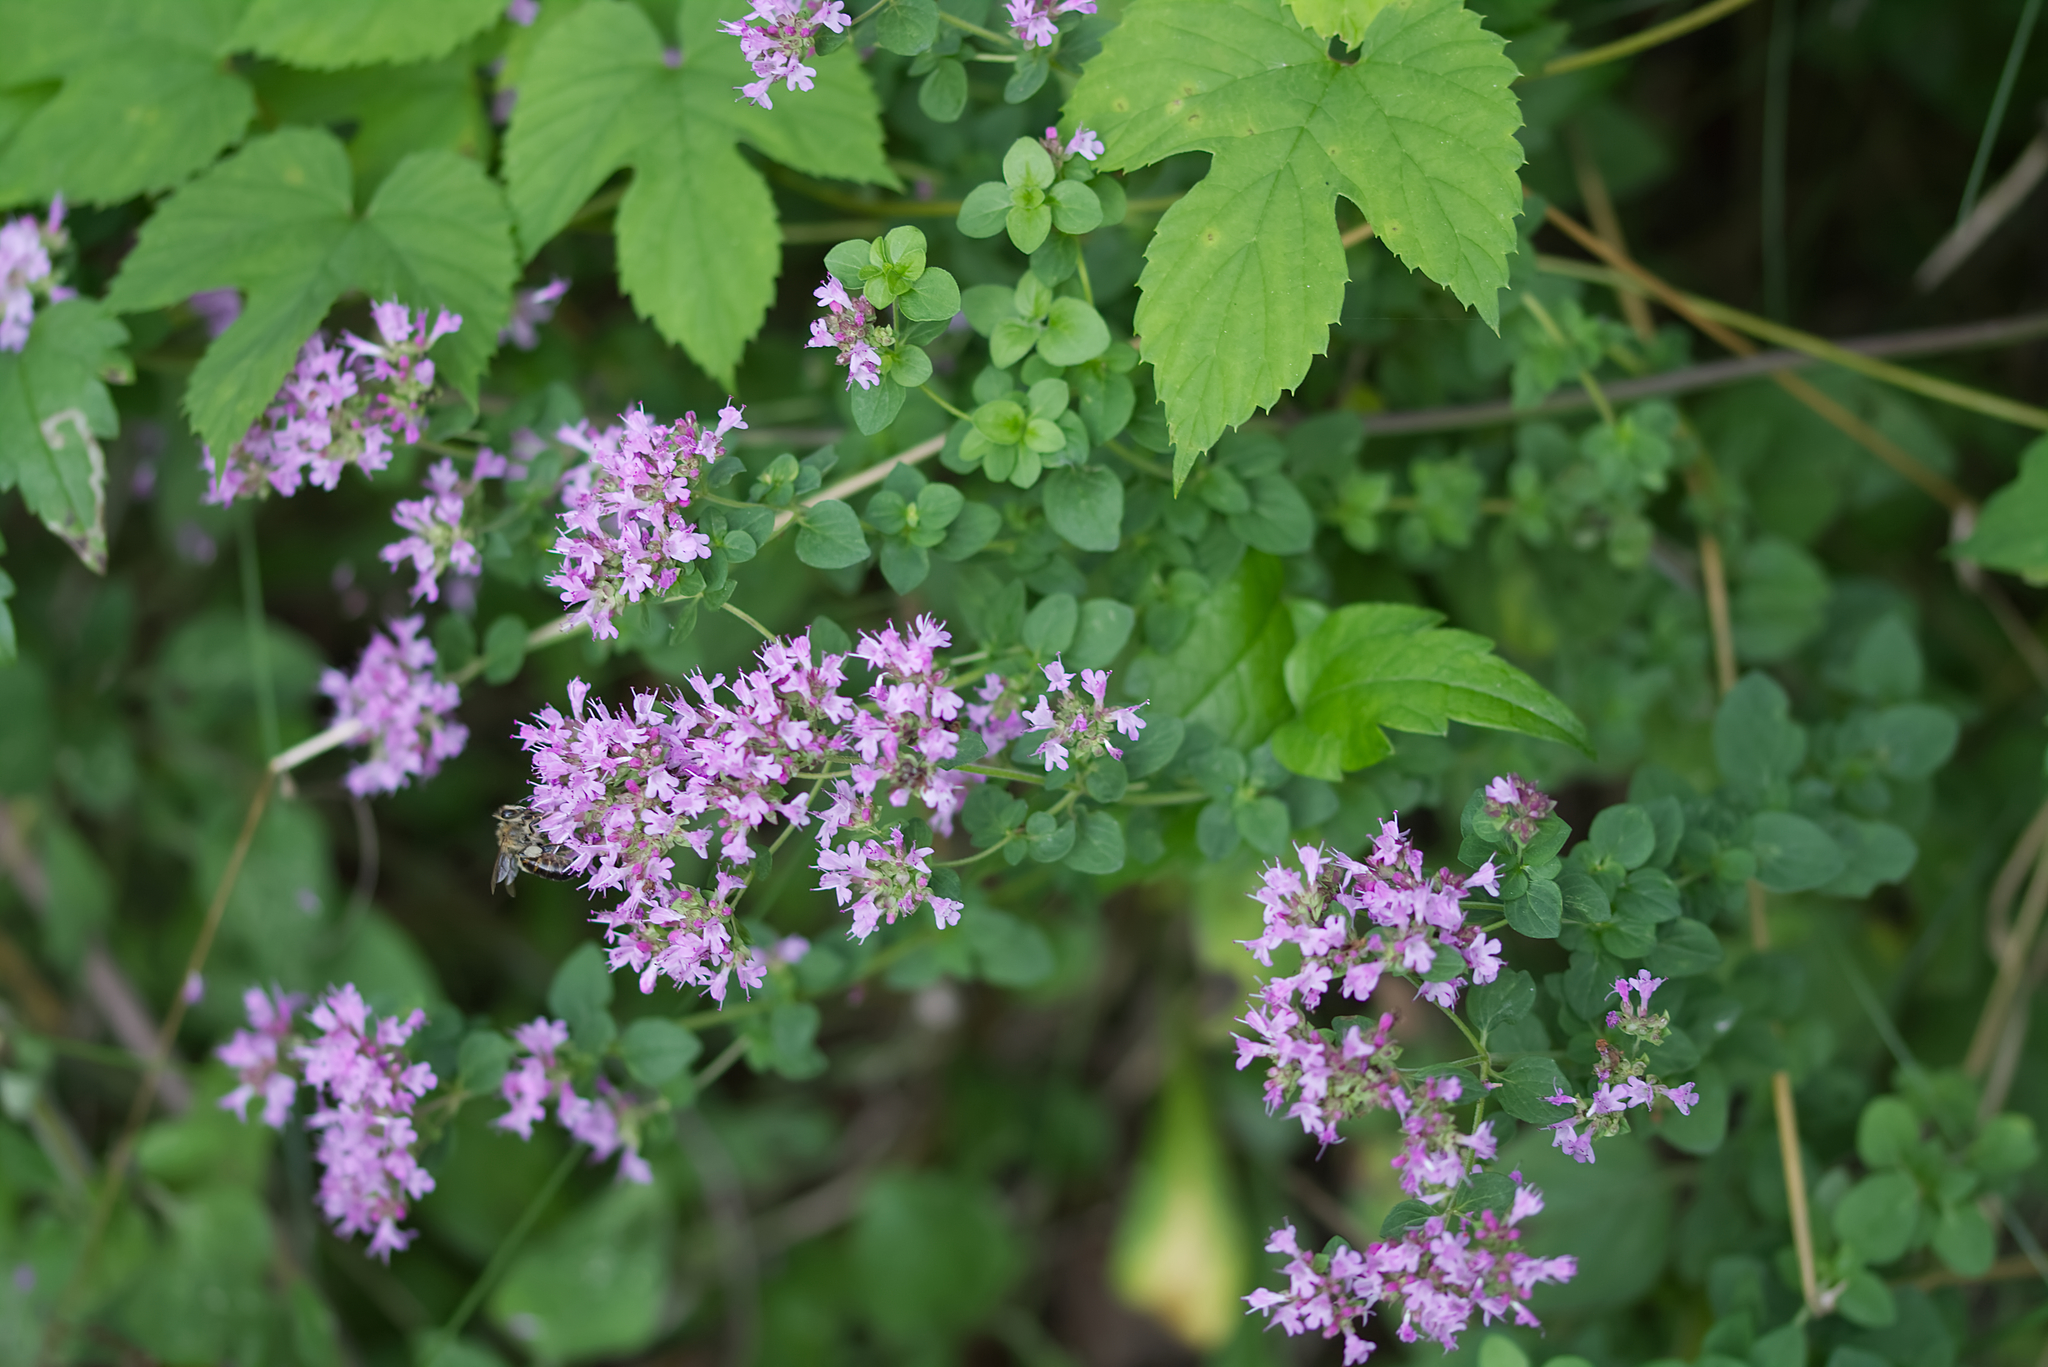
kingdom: Plantae
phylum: Tracheophyta
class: Magnoliopsida
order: Lamiales
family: Lamiaceae
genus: Origanum
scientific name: Origanum vulgare
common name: Wild marjoram
